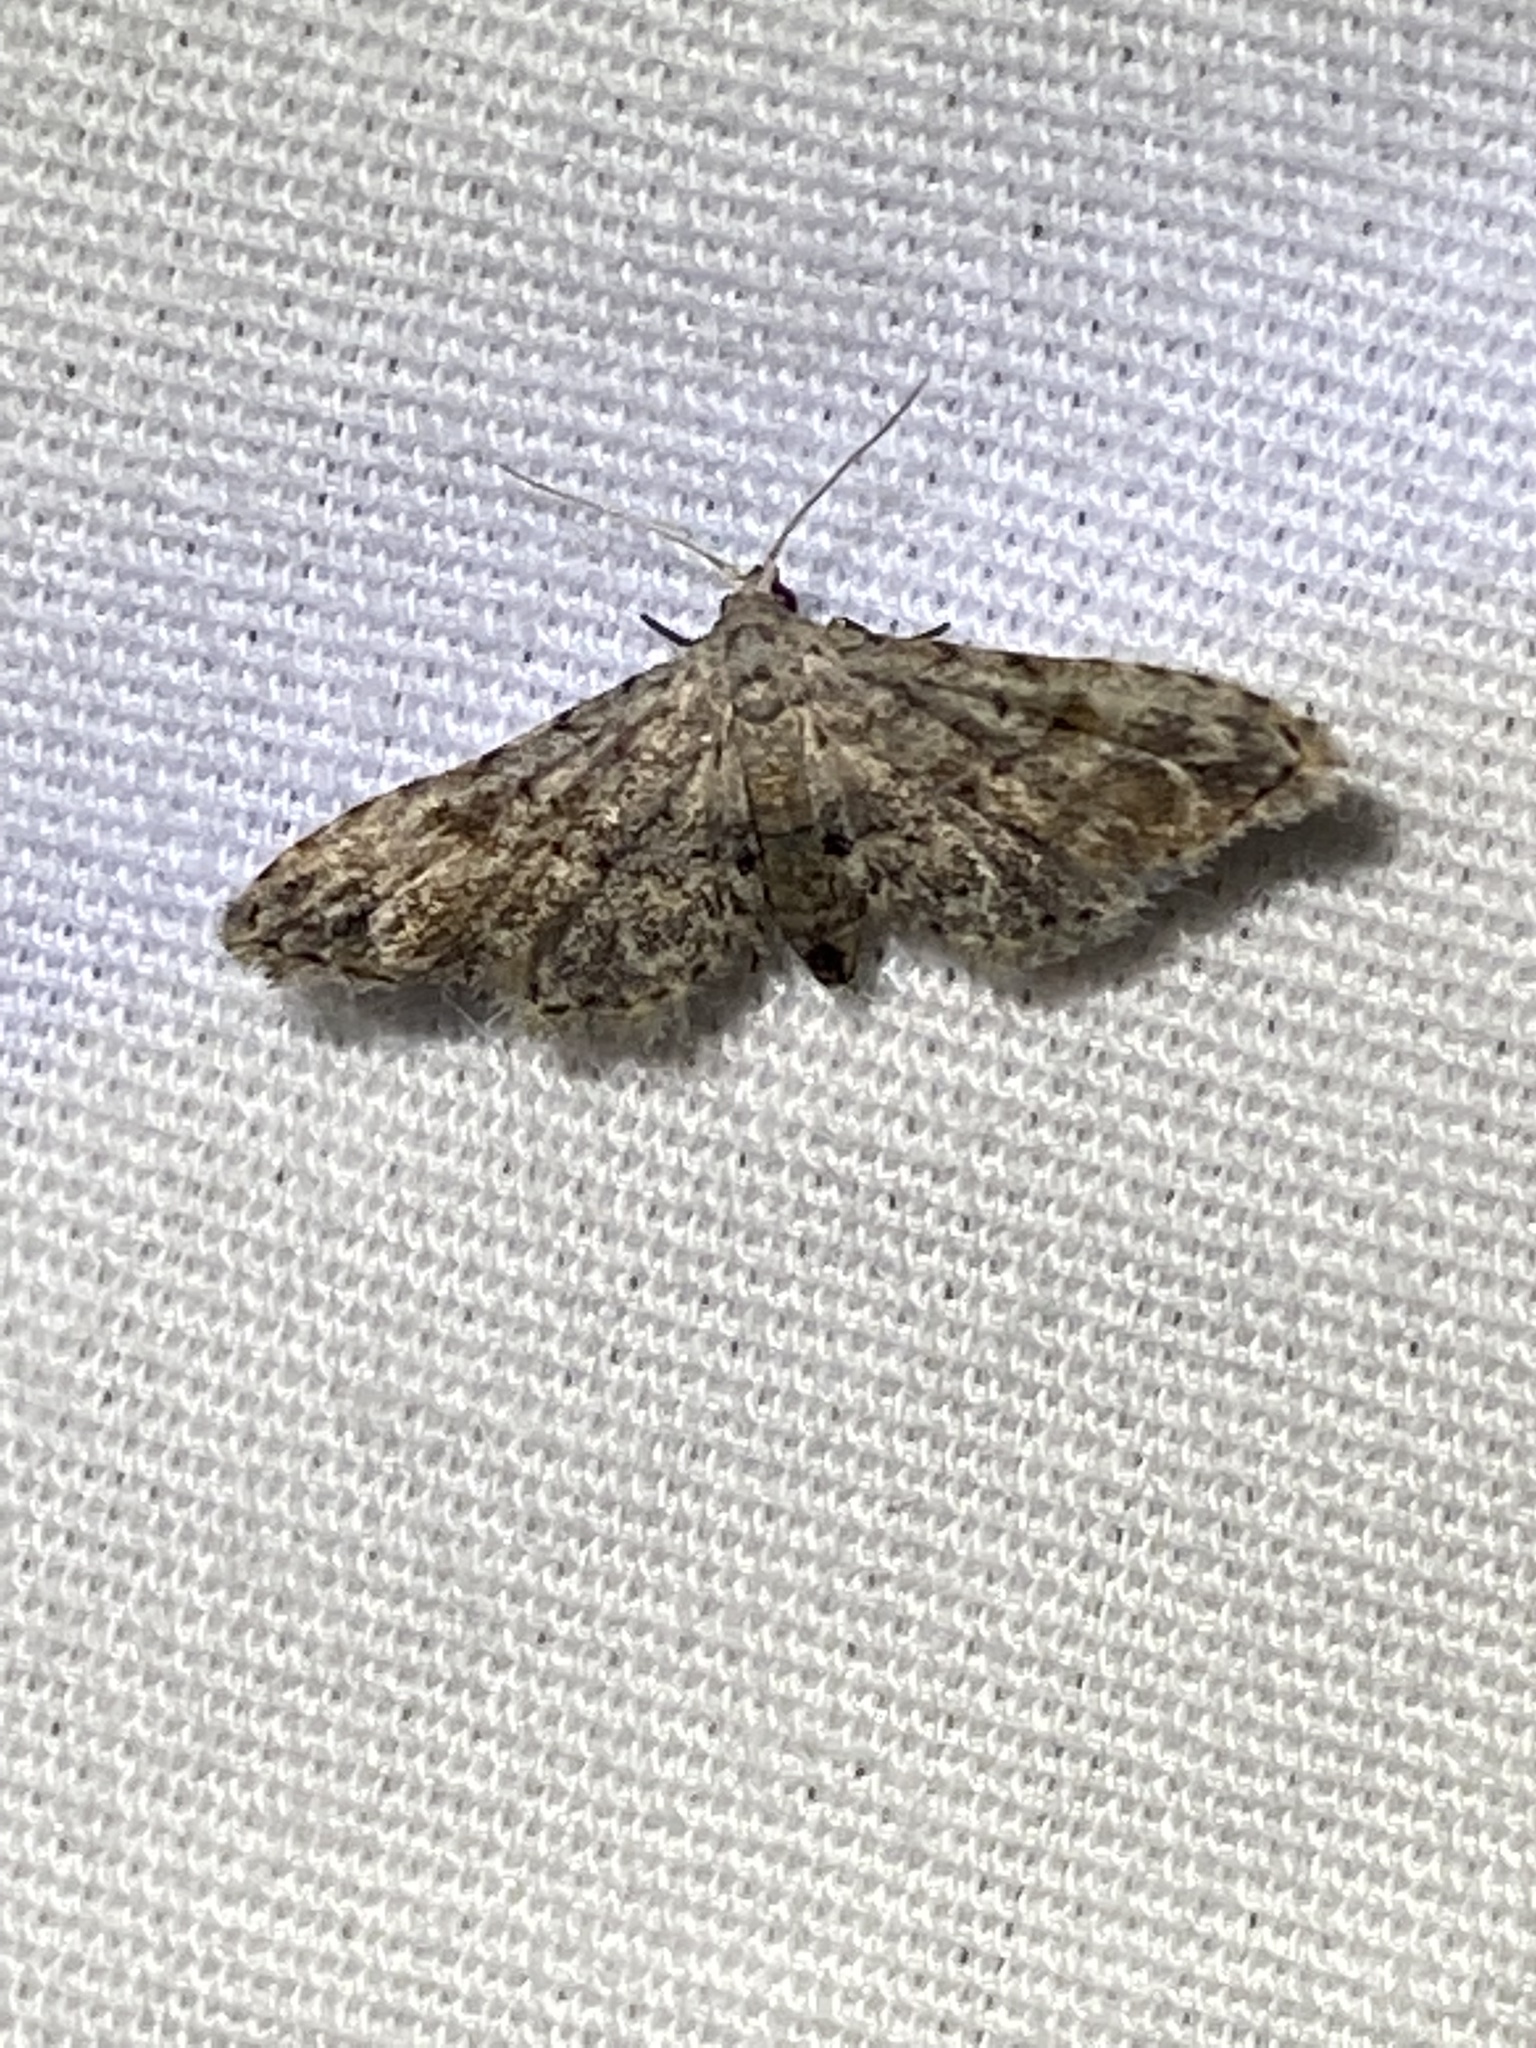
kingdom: Animalia
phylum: Arthropoda
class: Insecta
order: Lepidoptera
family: Erebidae
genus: Sigela
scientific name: Sigela brauneata
